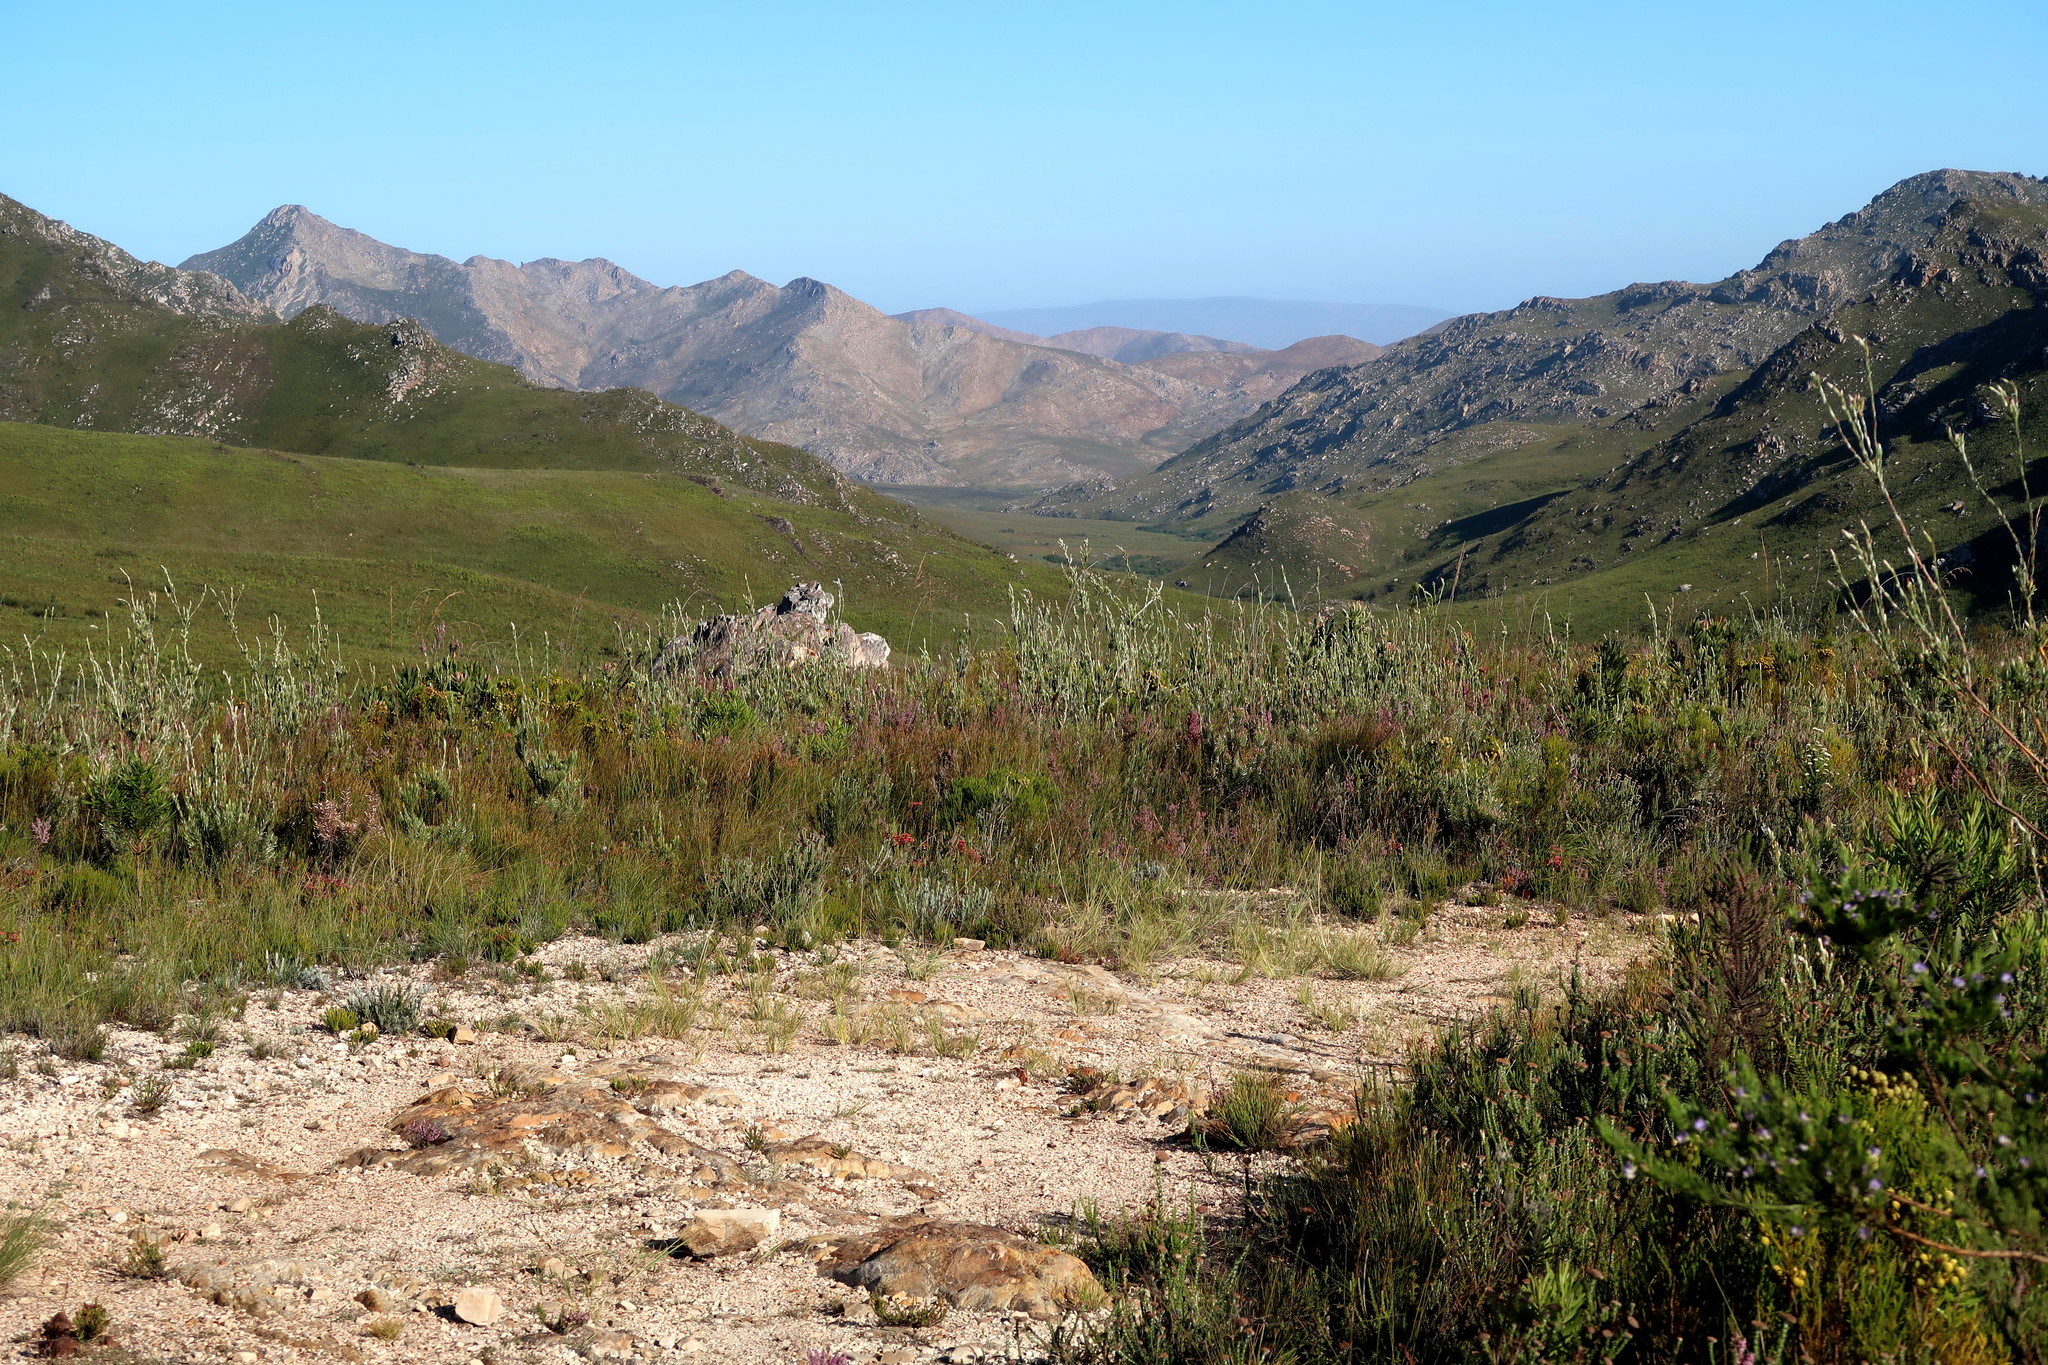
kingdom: Plantae
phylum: Tracheophyta
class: Magnoliopsida
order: Proteales
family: Proteaceae
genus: Leucadendron
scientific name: Leucadendron uliginosum
